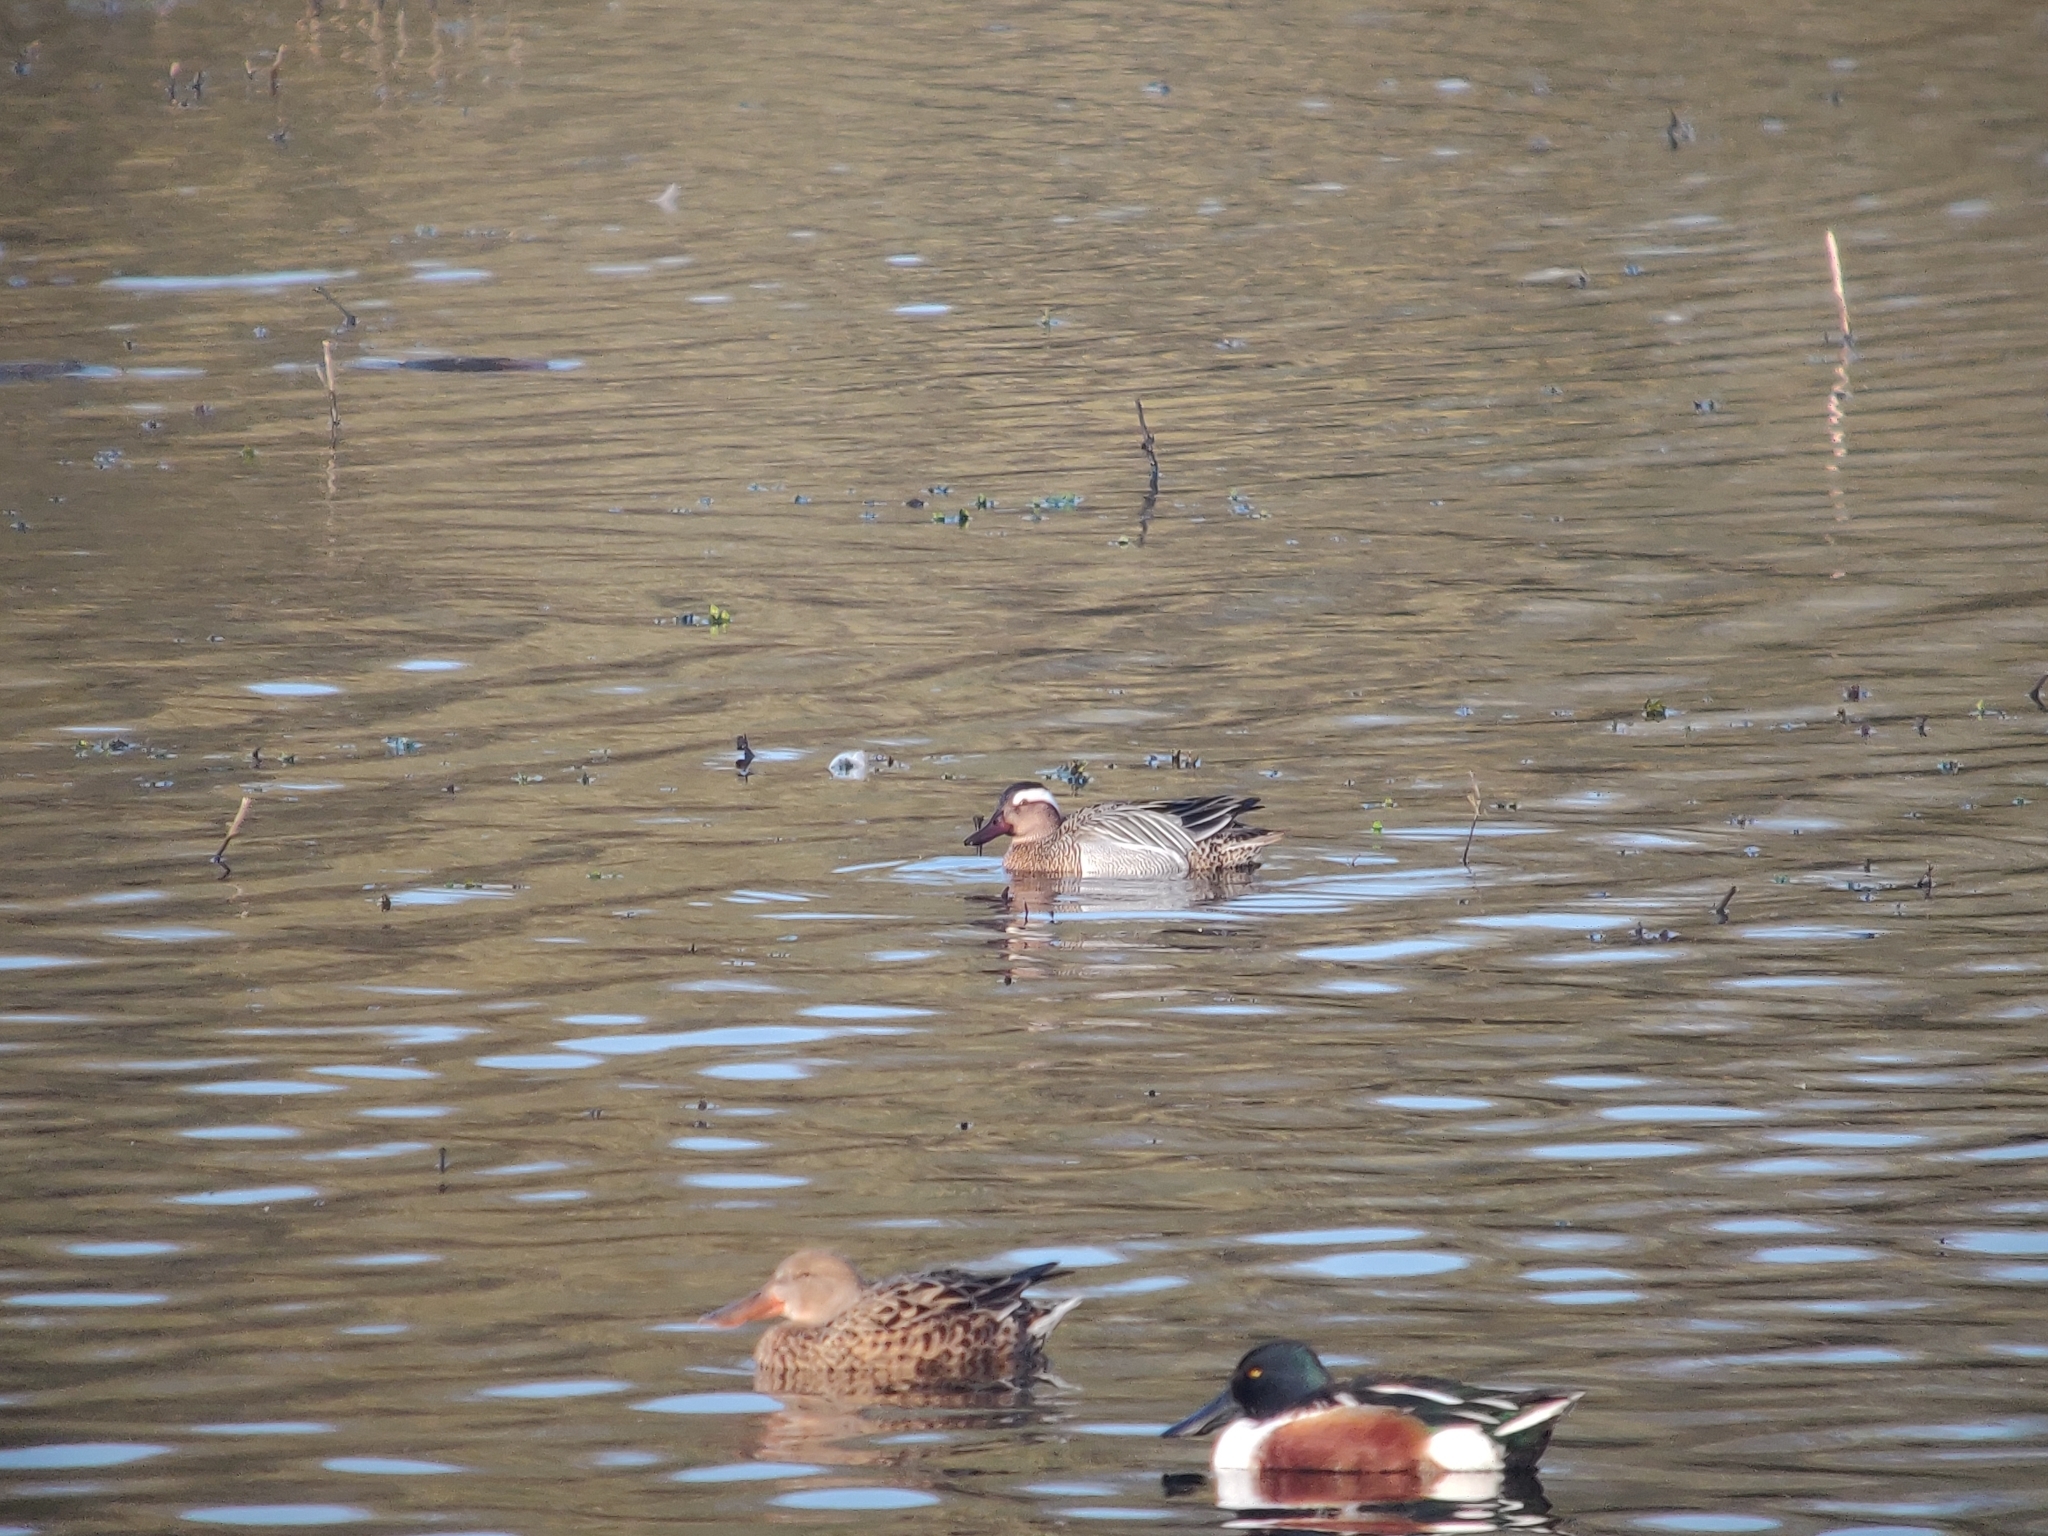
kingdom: Animalia
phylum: Chordata
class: Aves
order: Anseriformes
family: Anatidae
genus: Spatula
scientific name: Spatula querquedula
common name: Garganey
